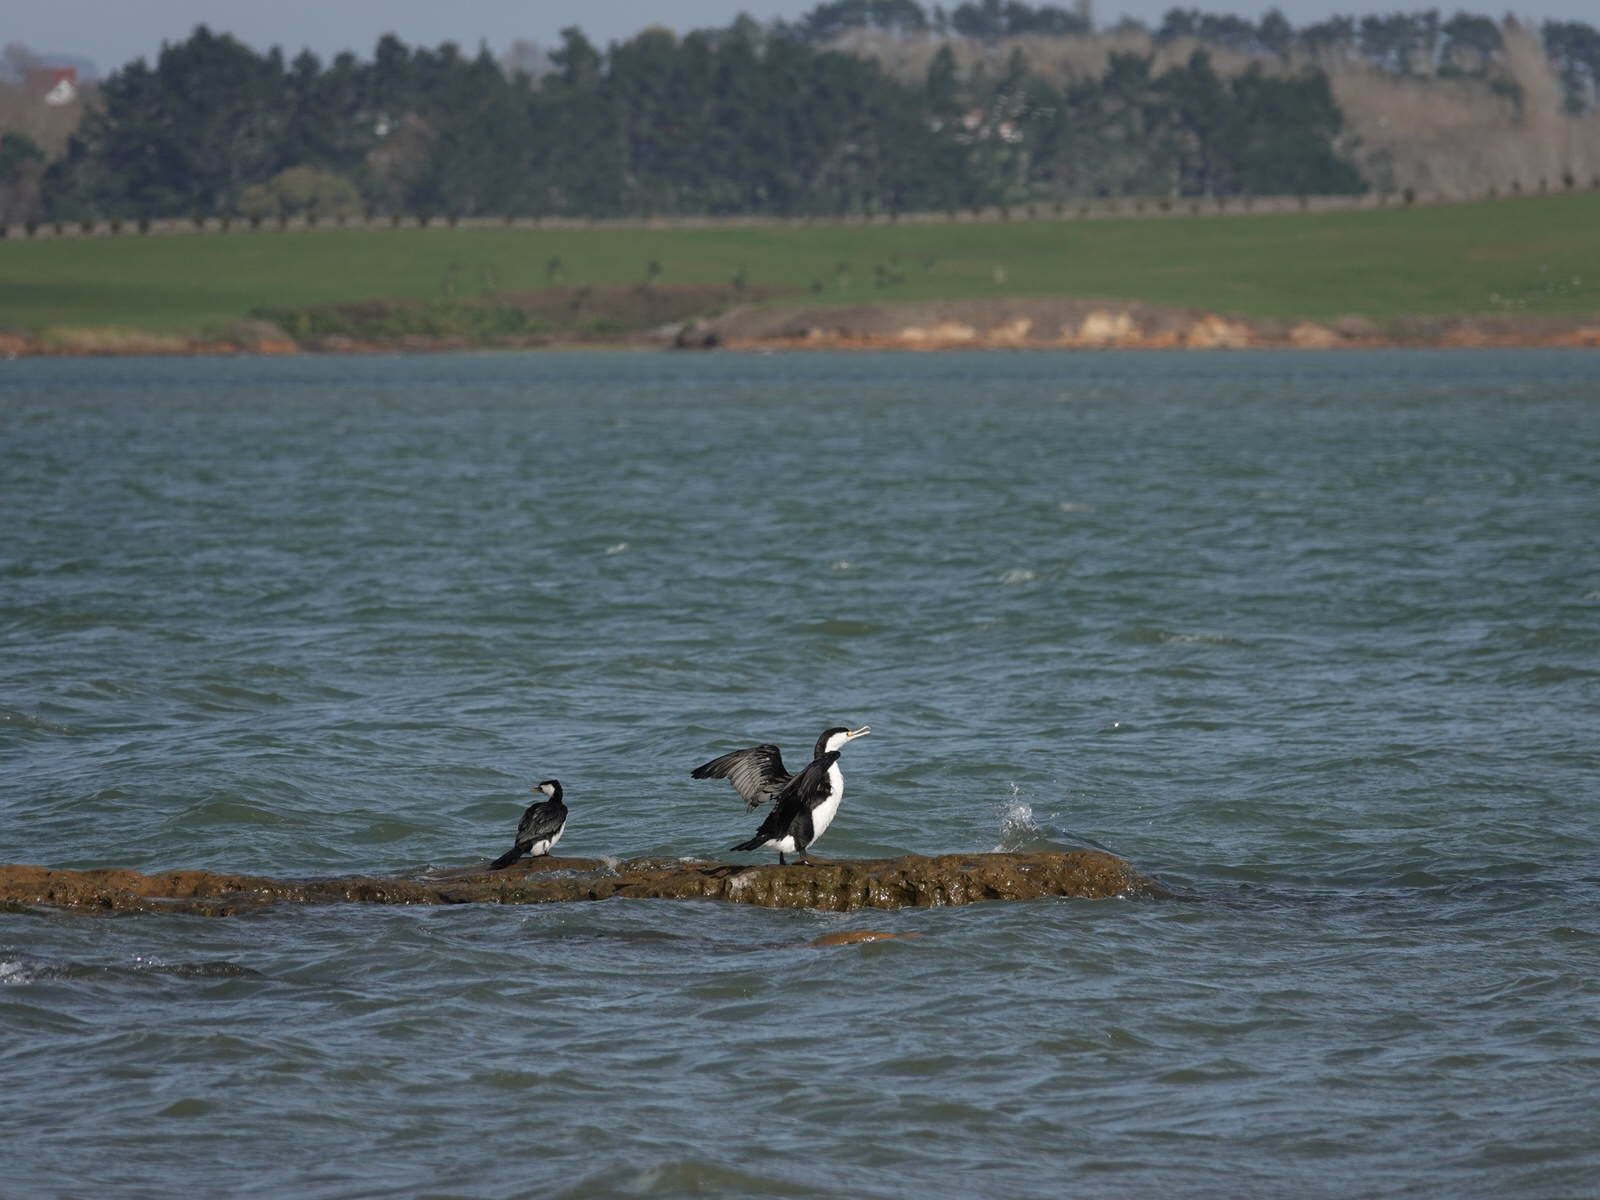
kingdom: Animalia
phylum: Chordata
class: Aves
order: Suliformes
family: Phalacrocoracidae
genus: Microcarbo
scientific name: Microcarbo melanoleucos
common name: Little pied cormorant
